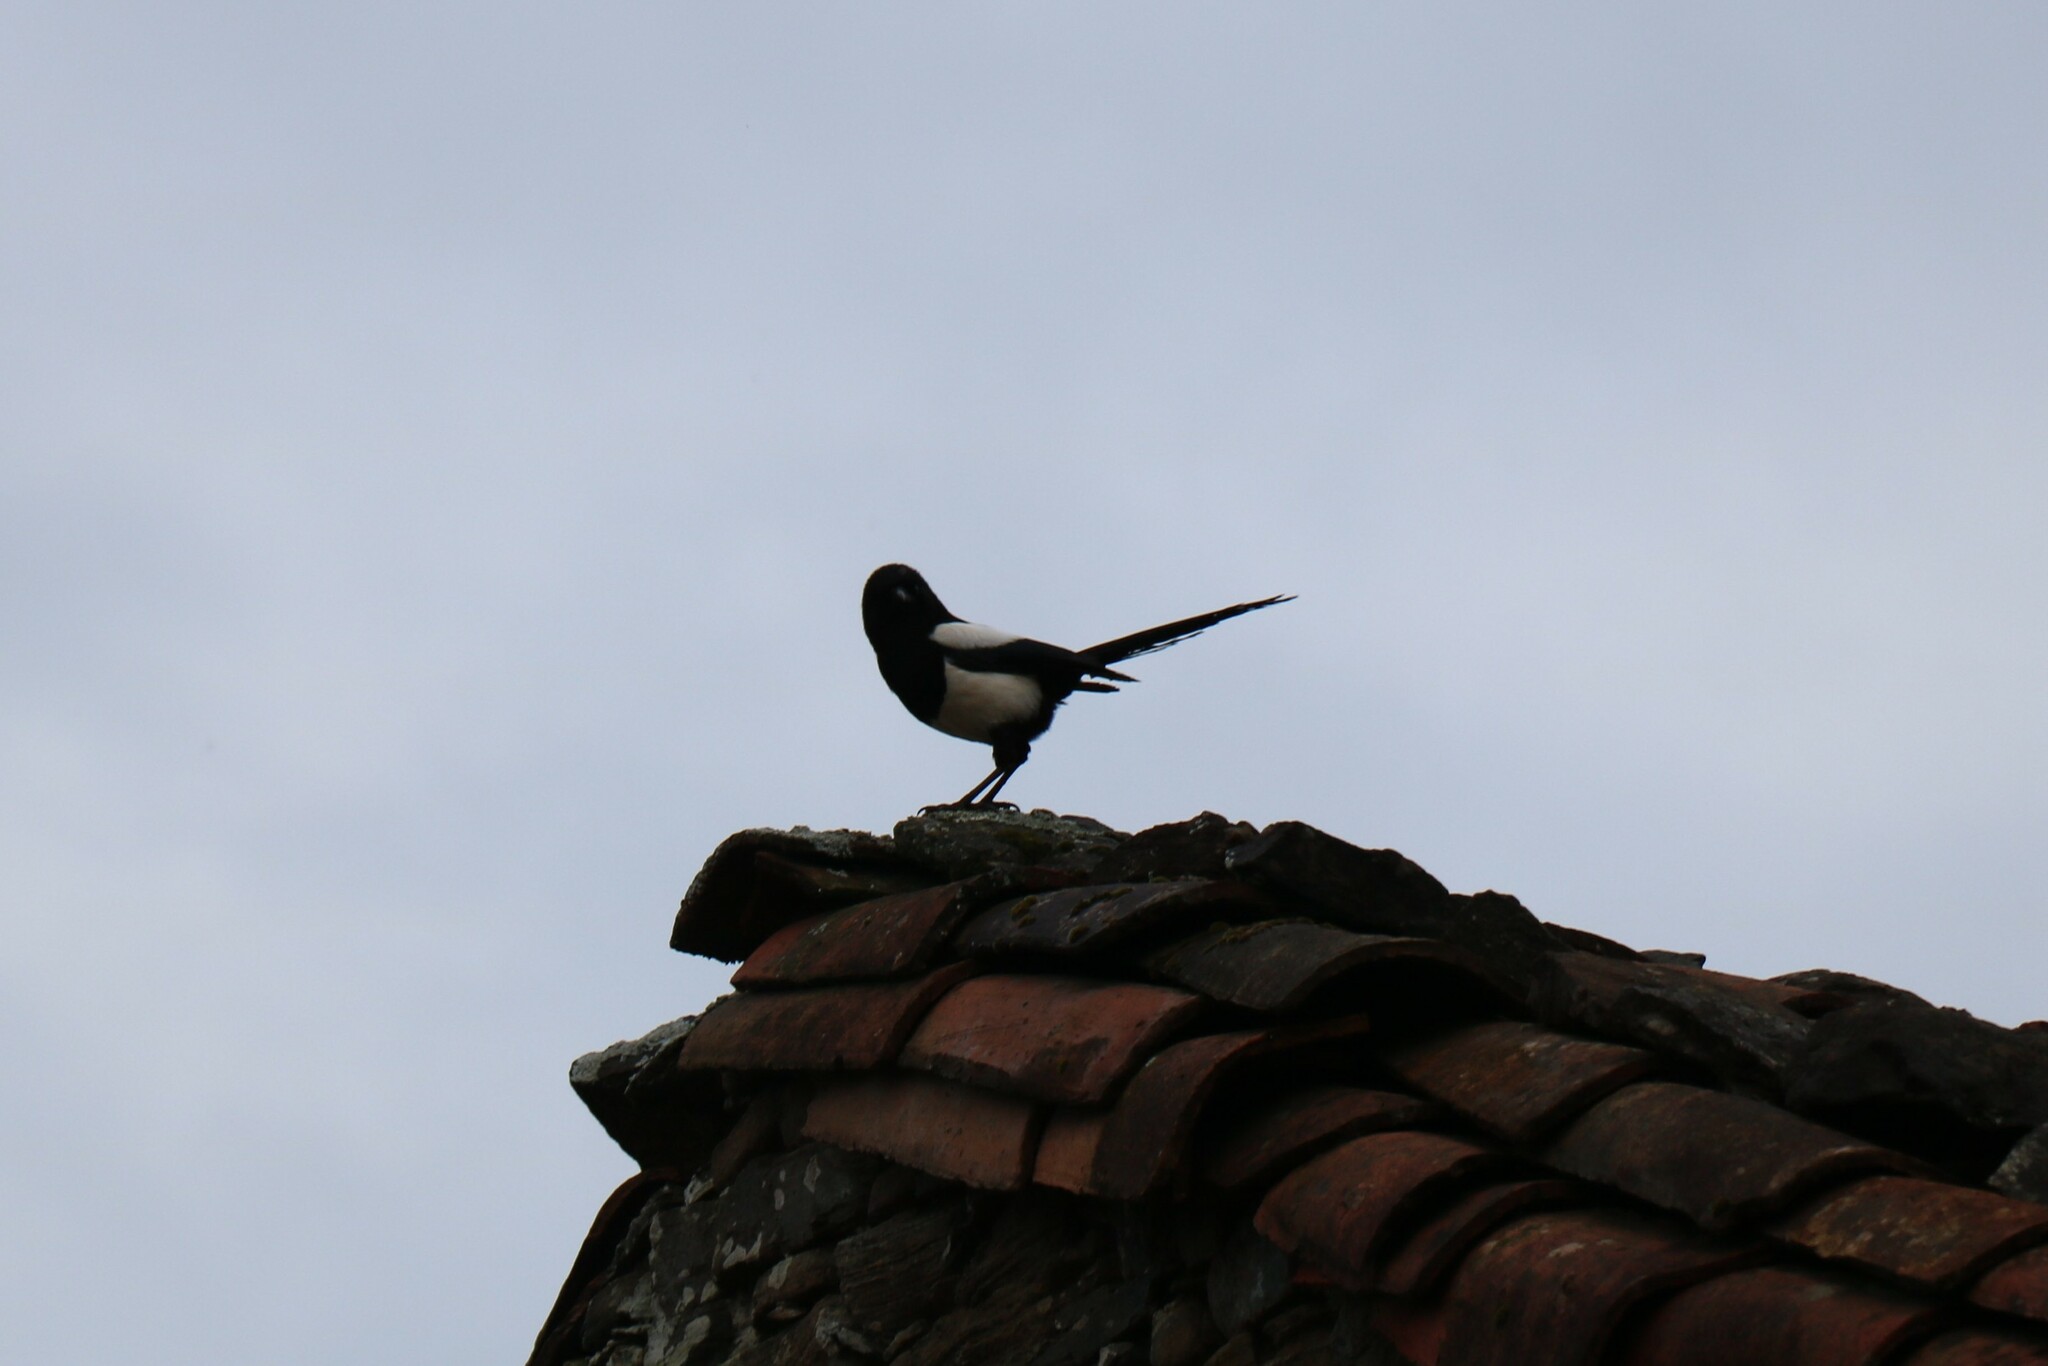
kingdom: Animalia
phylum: Chordata
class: Aves
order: Passeriformes
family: Corvidae
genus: Pica
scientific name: Pica pica
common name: Eurasian magpie
